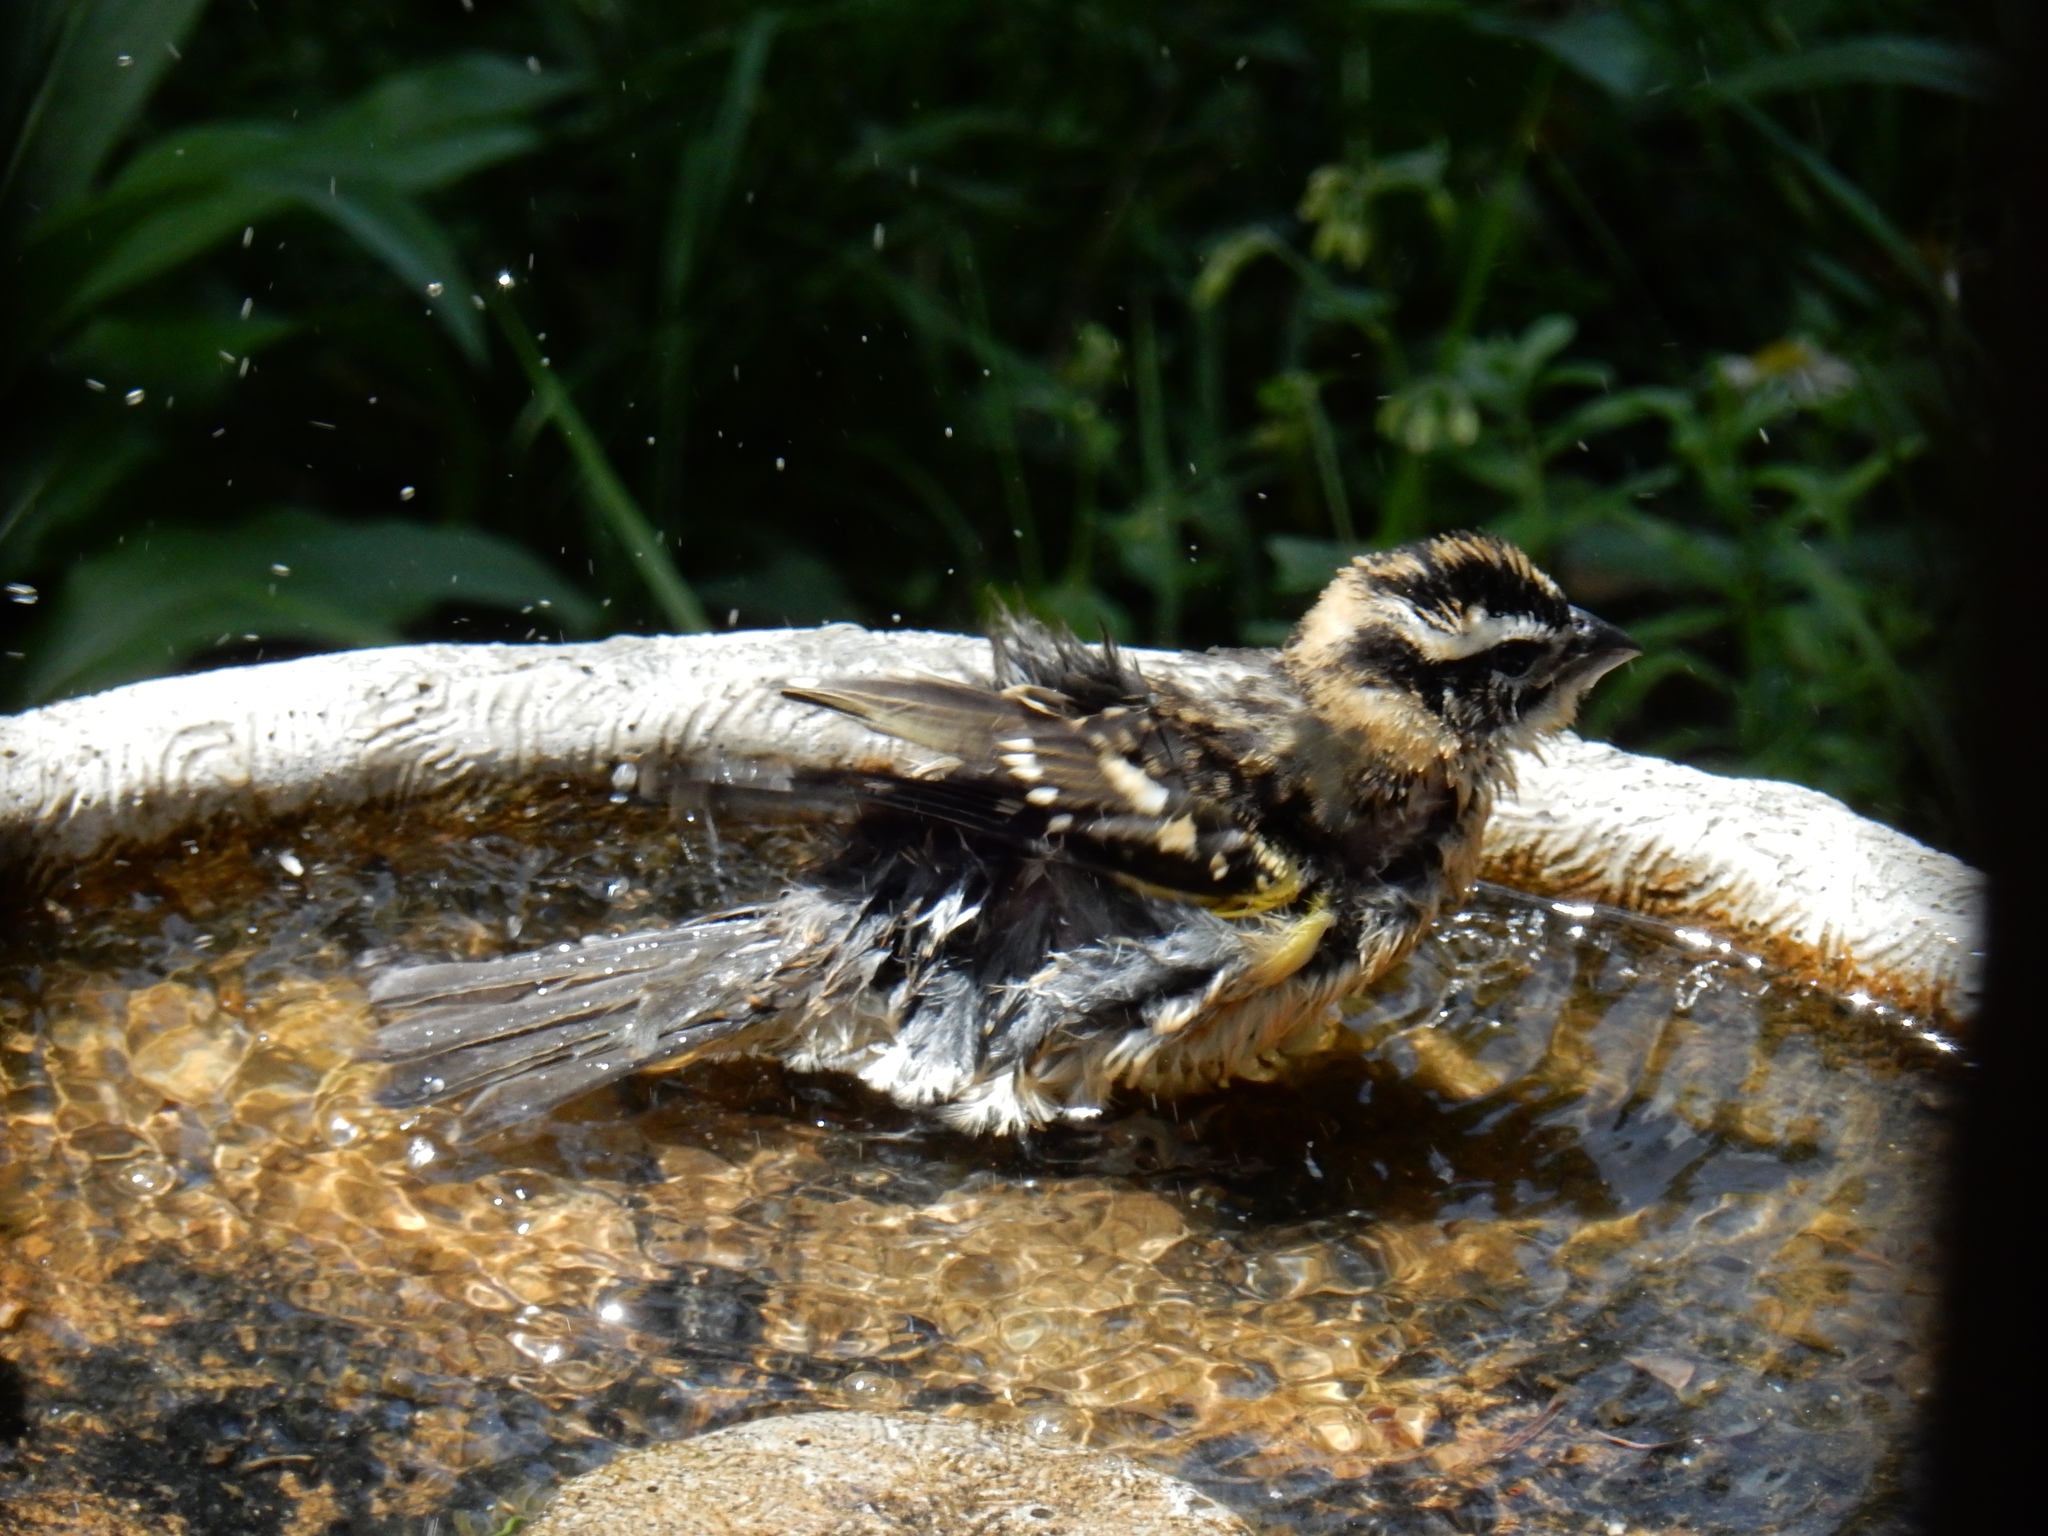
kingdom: Animalia
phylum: Chordata
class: Aves
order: Passeriformes
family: Cardinalidae
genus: Pheucticus
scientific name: Pheucticus melanocephalus
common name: Black-headed grosbeak
